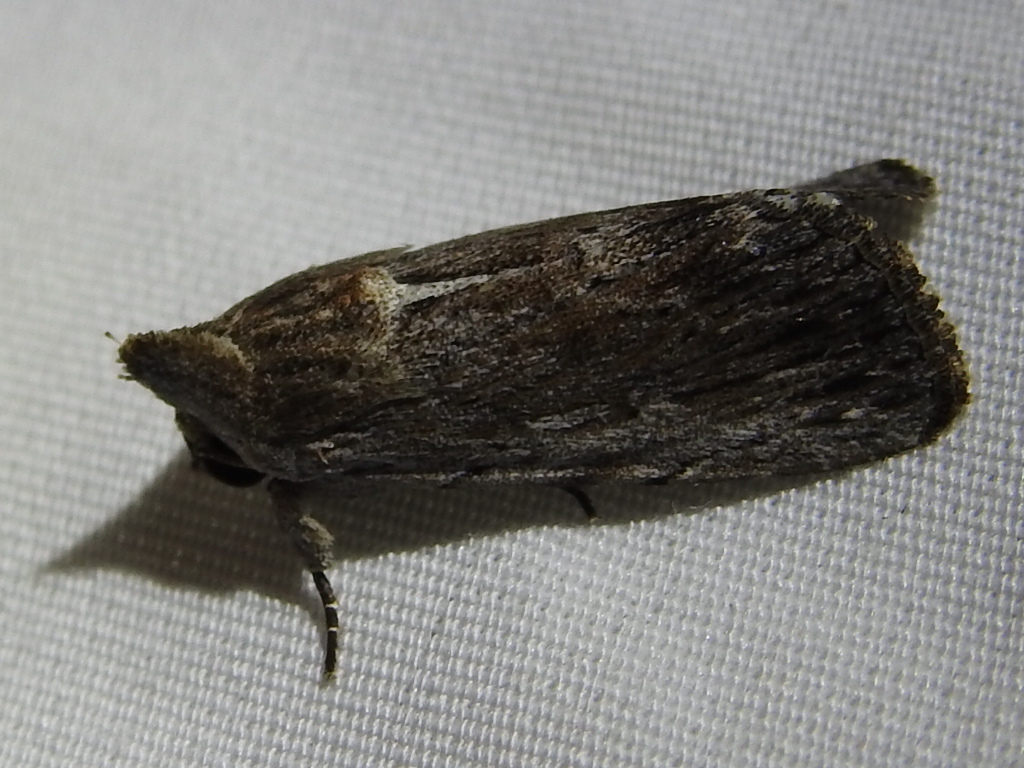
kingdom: Animalia
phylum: Arthropoda
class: Insecta
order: Lepidoptera
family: Noctuidae
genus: Neogalea
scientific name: Neogalea sunia
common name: Lantana stick caterpillar
